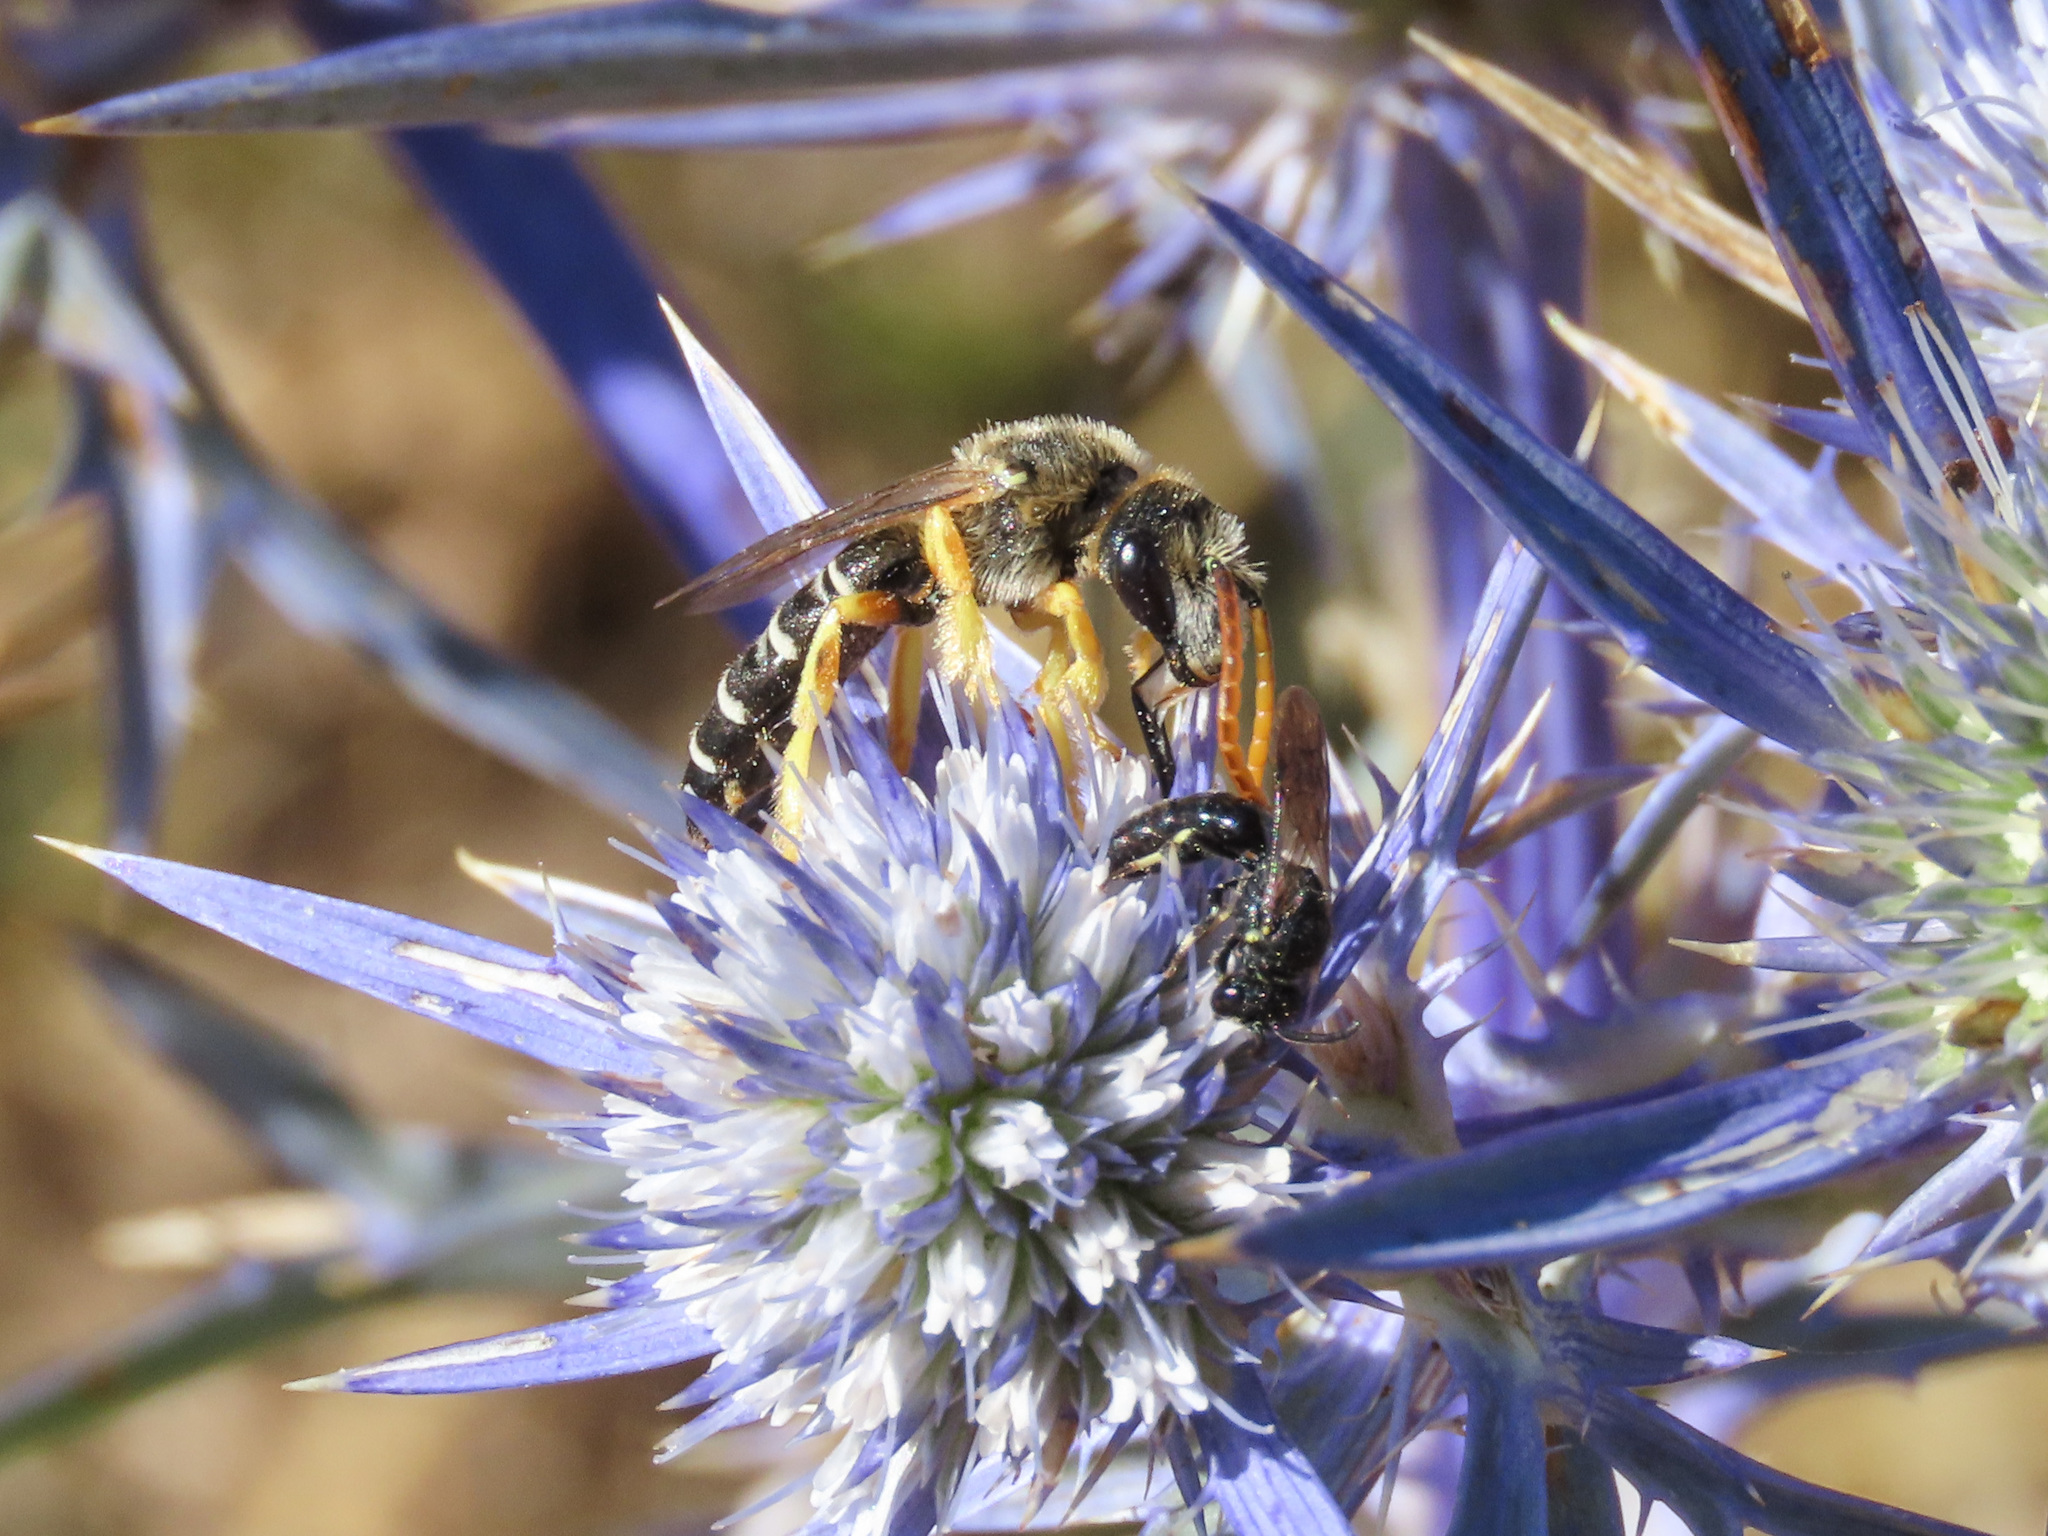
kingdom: Animalia
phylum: Arthropoda
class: Insecta
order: Hymenoptera
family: Halictidae
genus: Halictus
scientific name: Halictus patellatus
